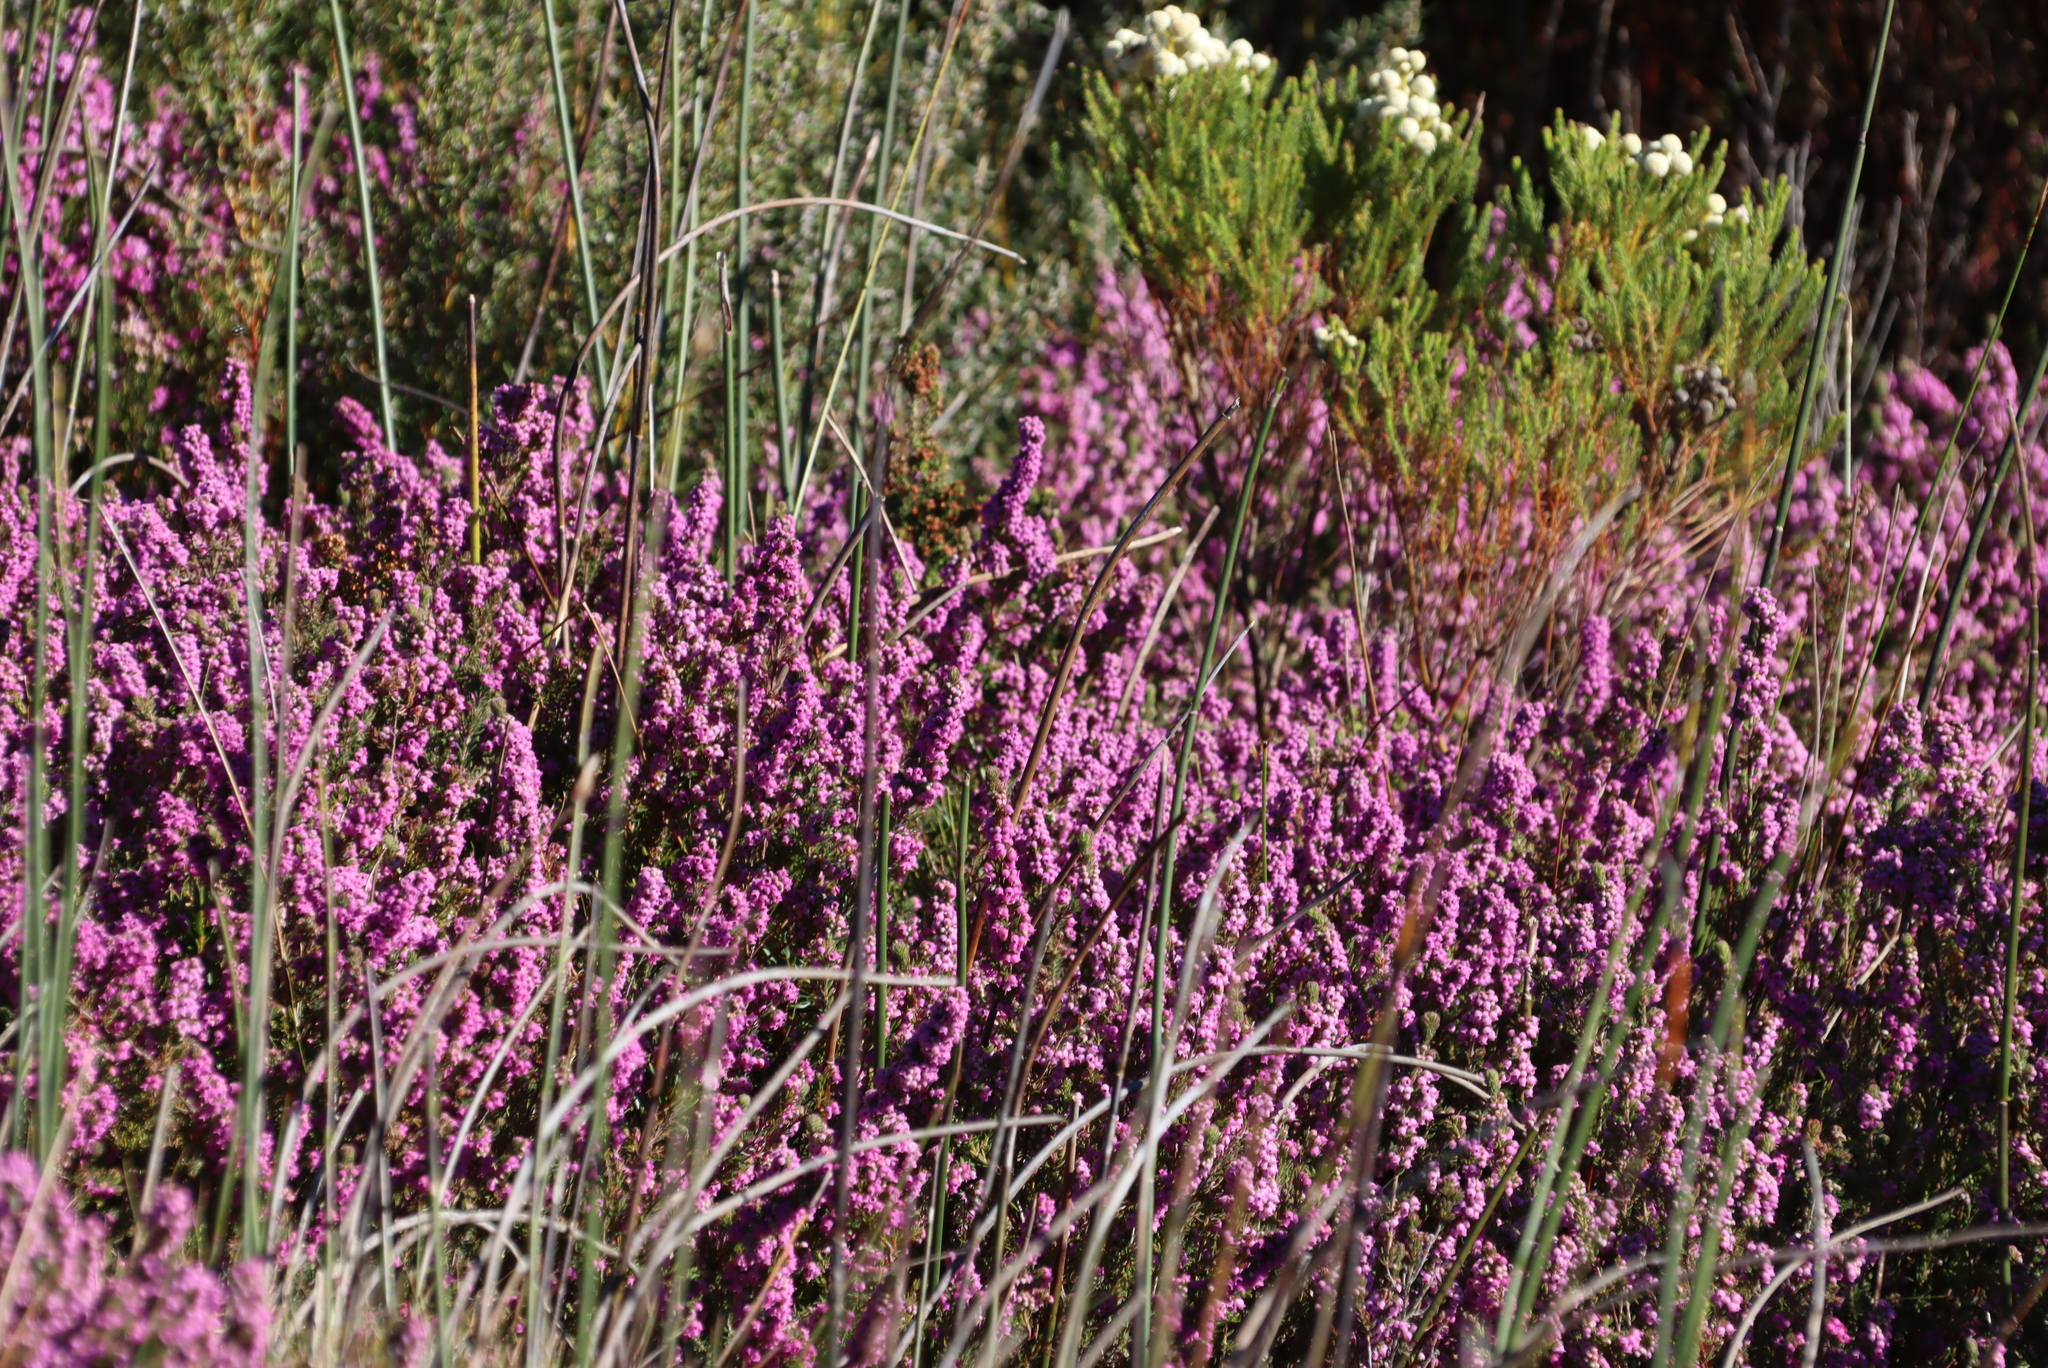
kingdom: Plantae
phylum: Tracheophyta
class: Magnoliopsida
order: Ericales
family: Ericaceae
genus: Erica
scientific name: Erica mollis
